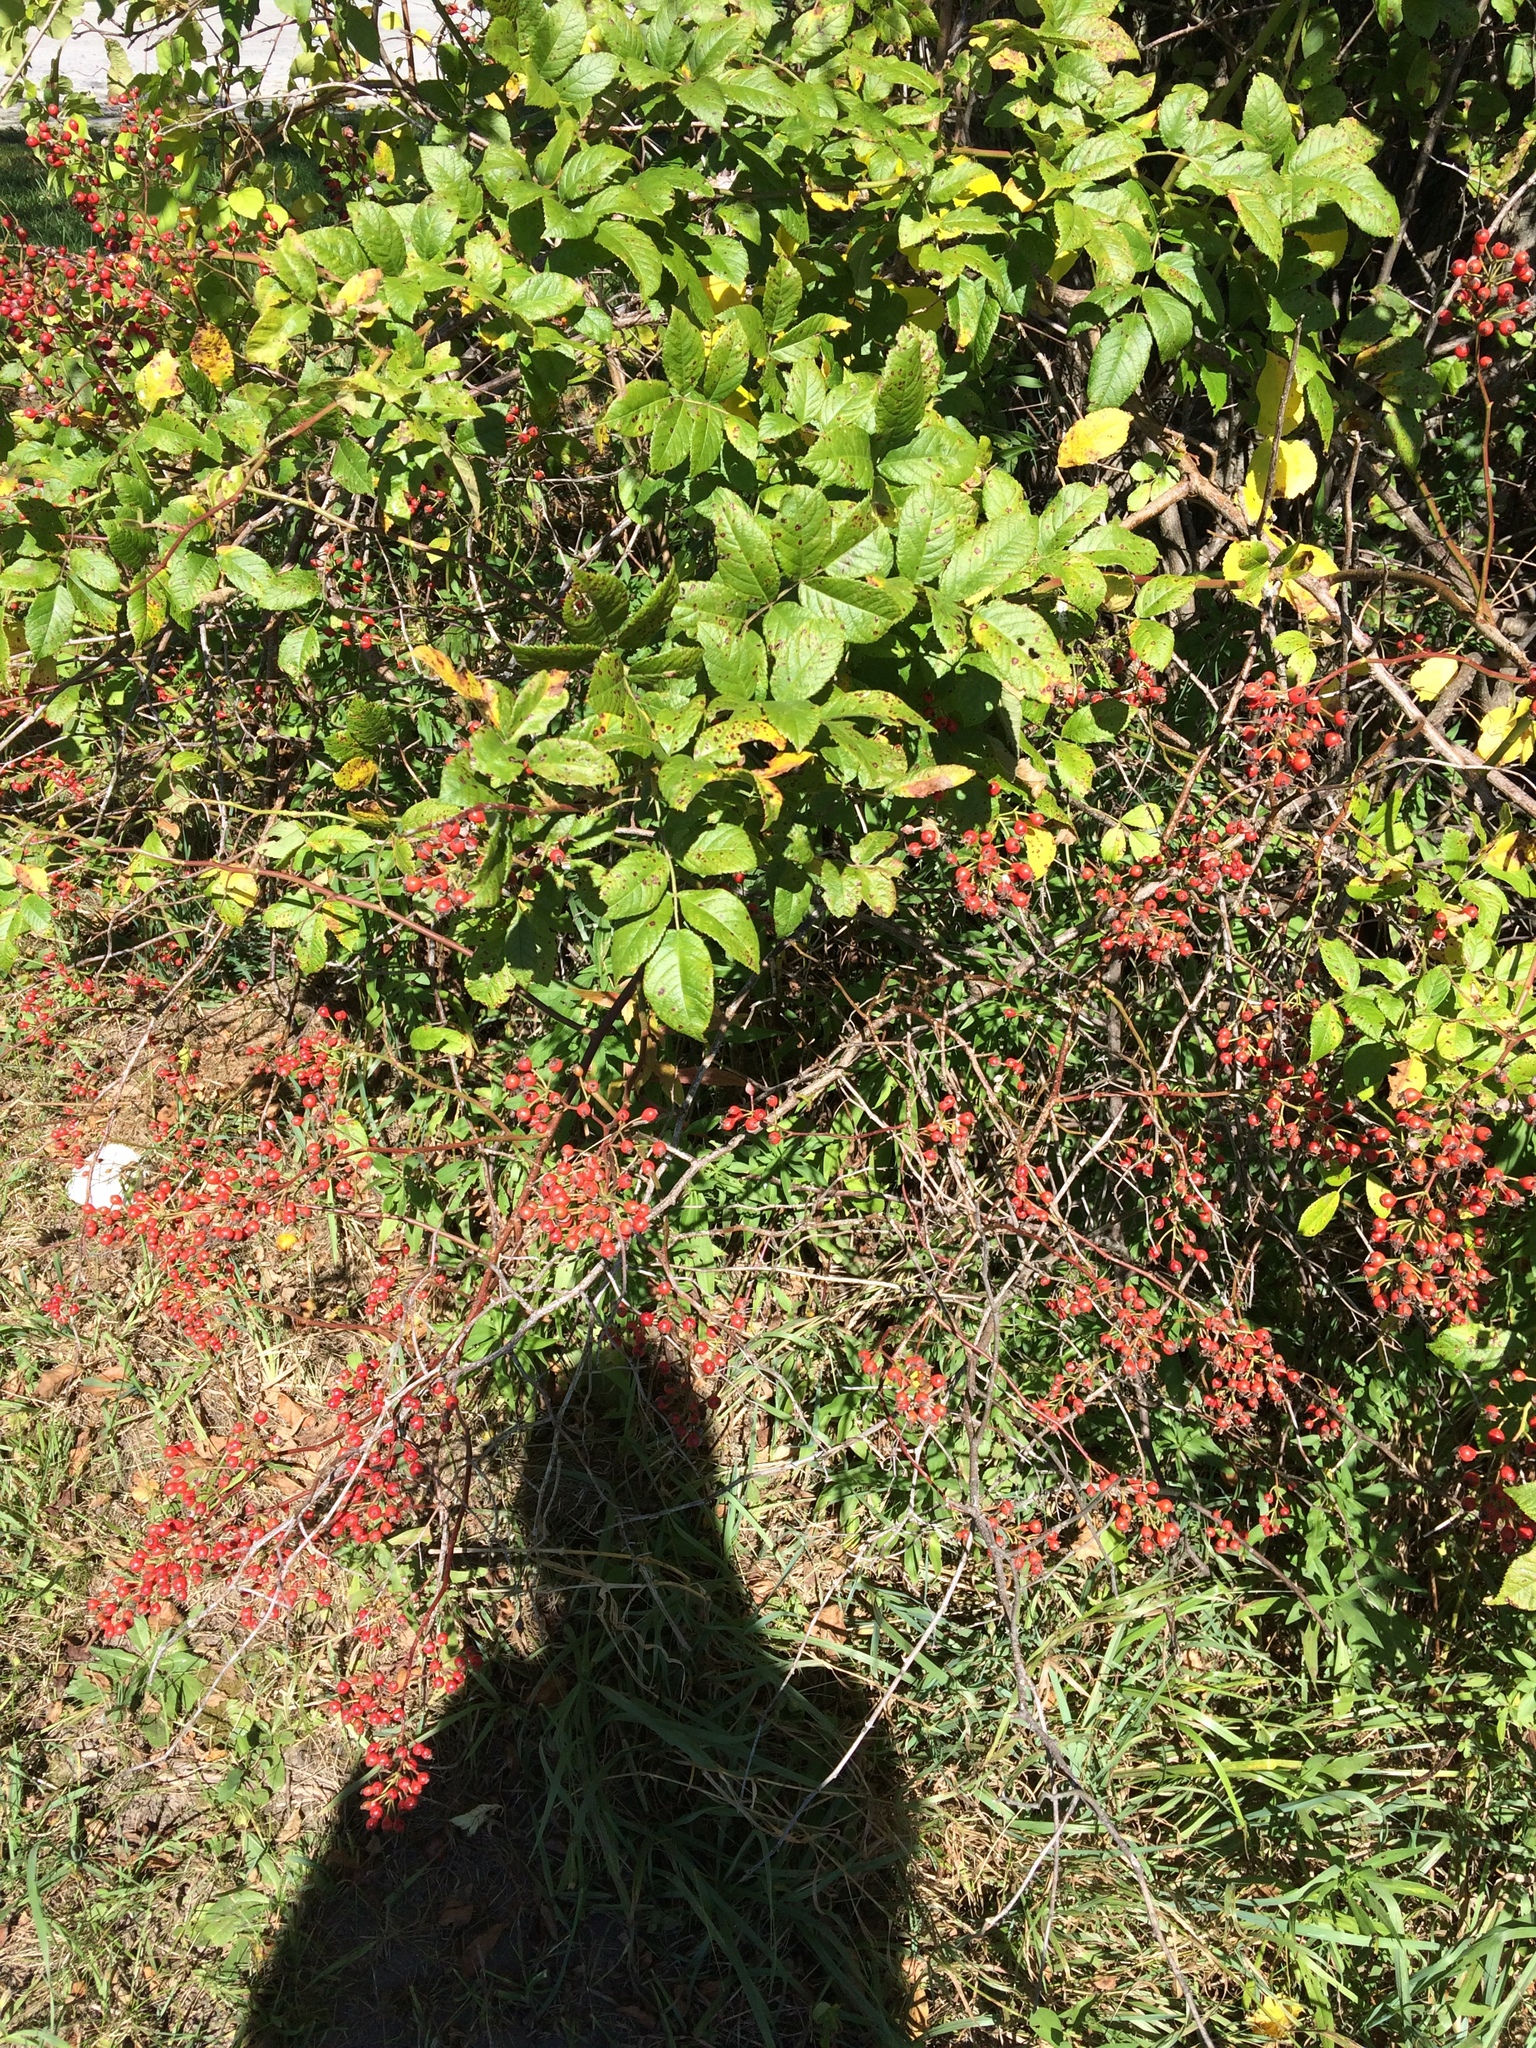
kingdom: Plantae
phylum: Tracheophyta
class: Magnoliopsida
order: Rosales
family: Rosaceae
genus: Rosa
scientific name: Rosa multiflora
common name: Multiflora rose
